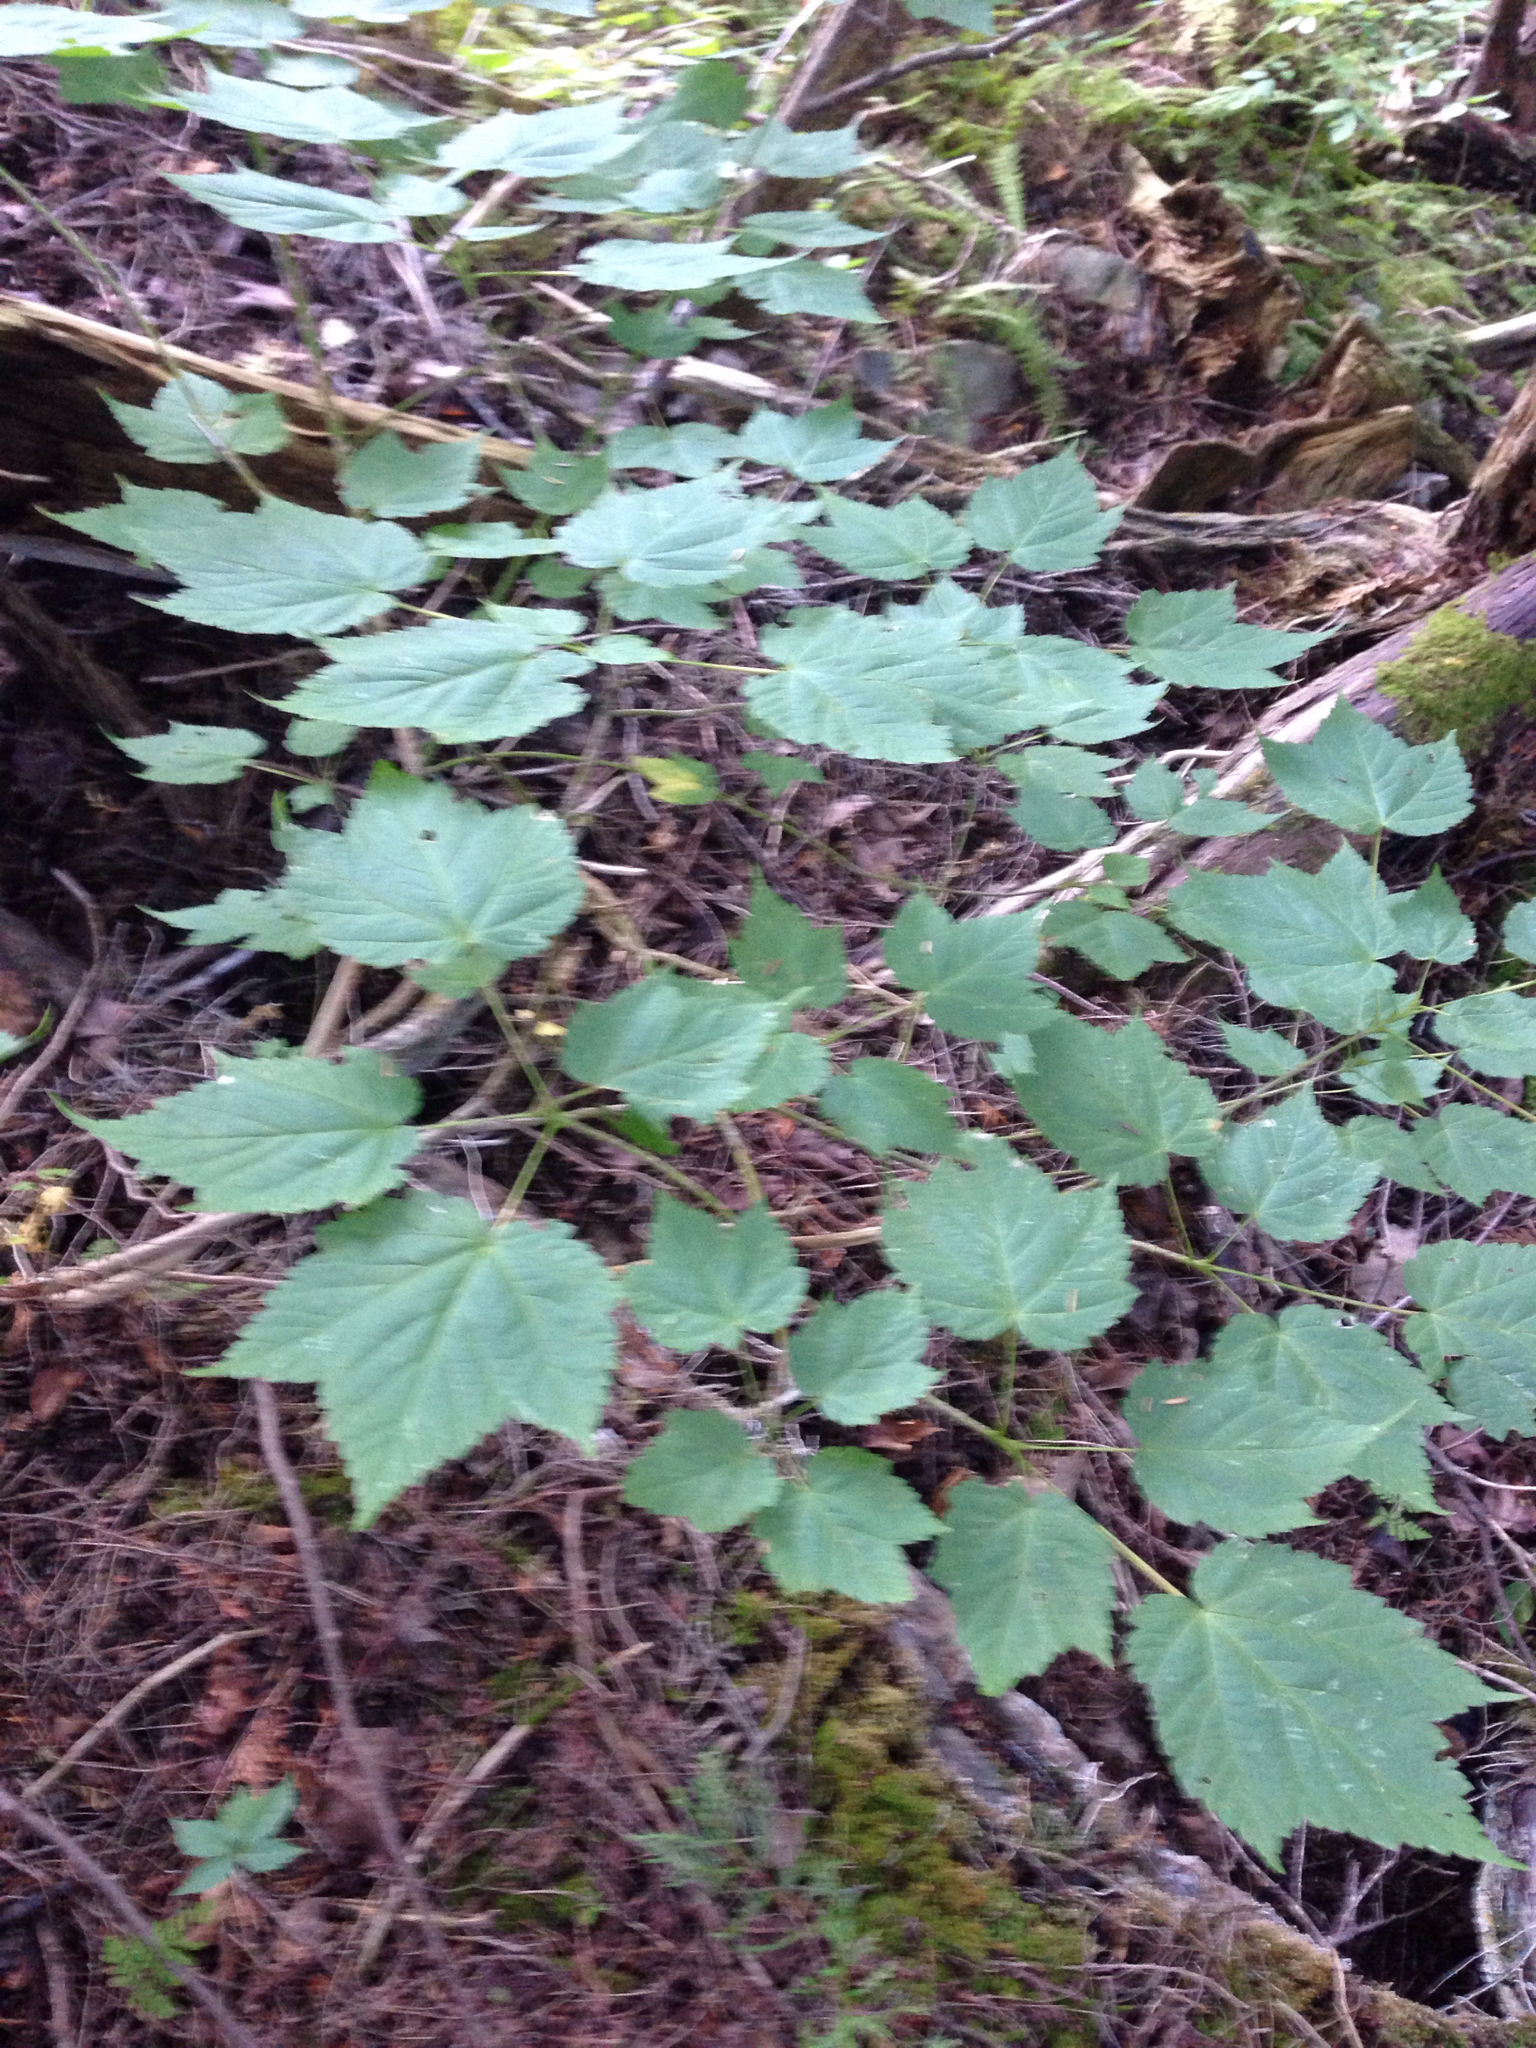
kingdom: Plantae
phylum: Tracheophyta
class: Magnoliopsida
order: Sapindales
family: Sapindaceae
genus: Acer
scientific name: Acer spicatum
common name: Mountain maple
